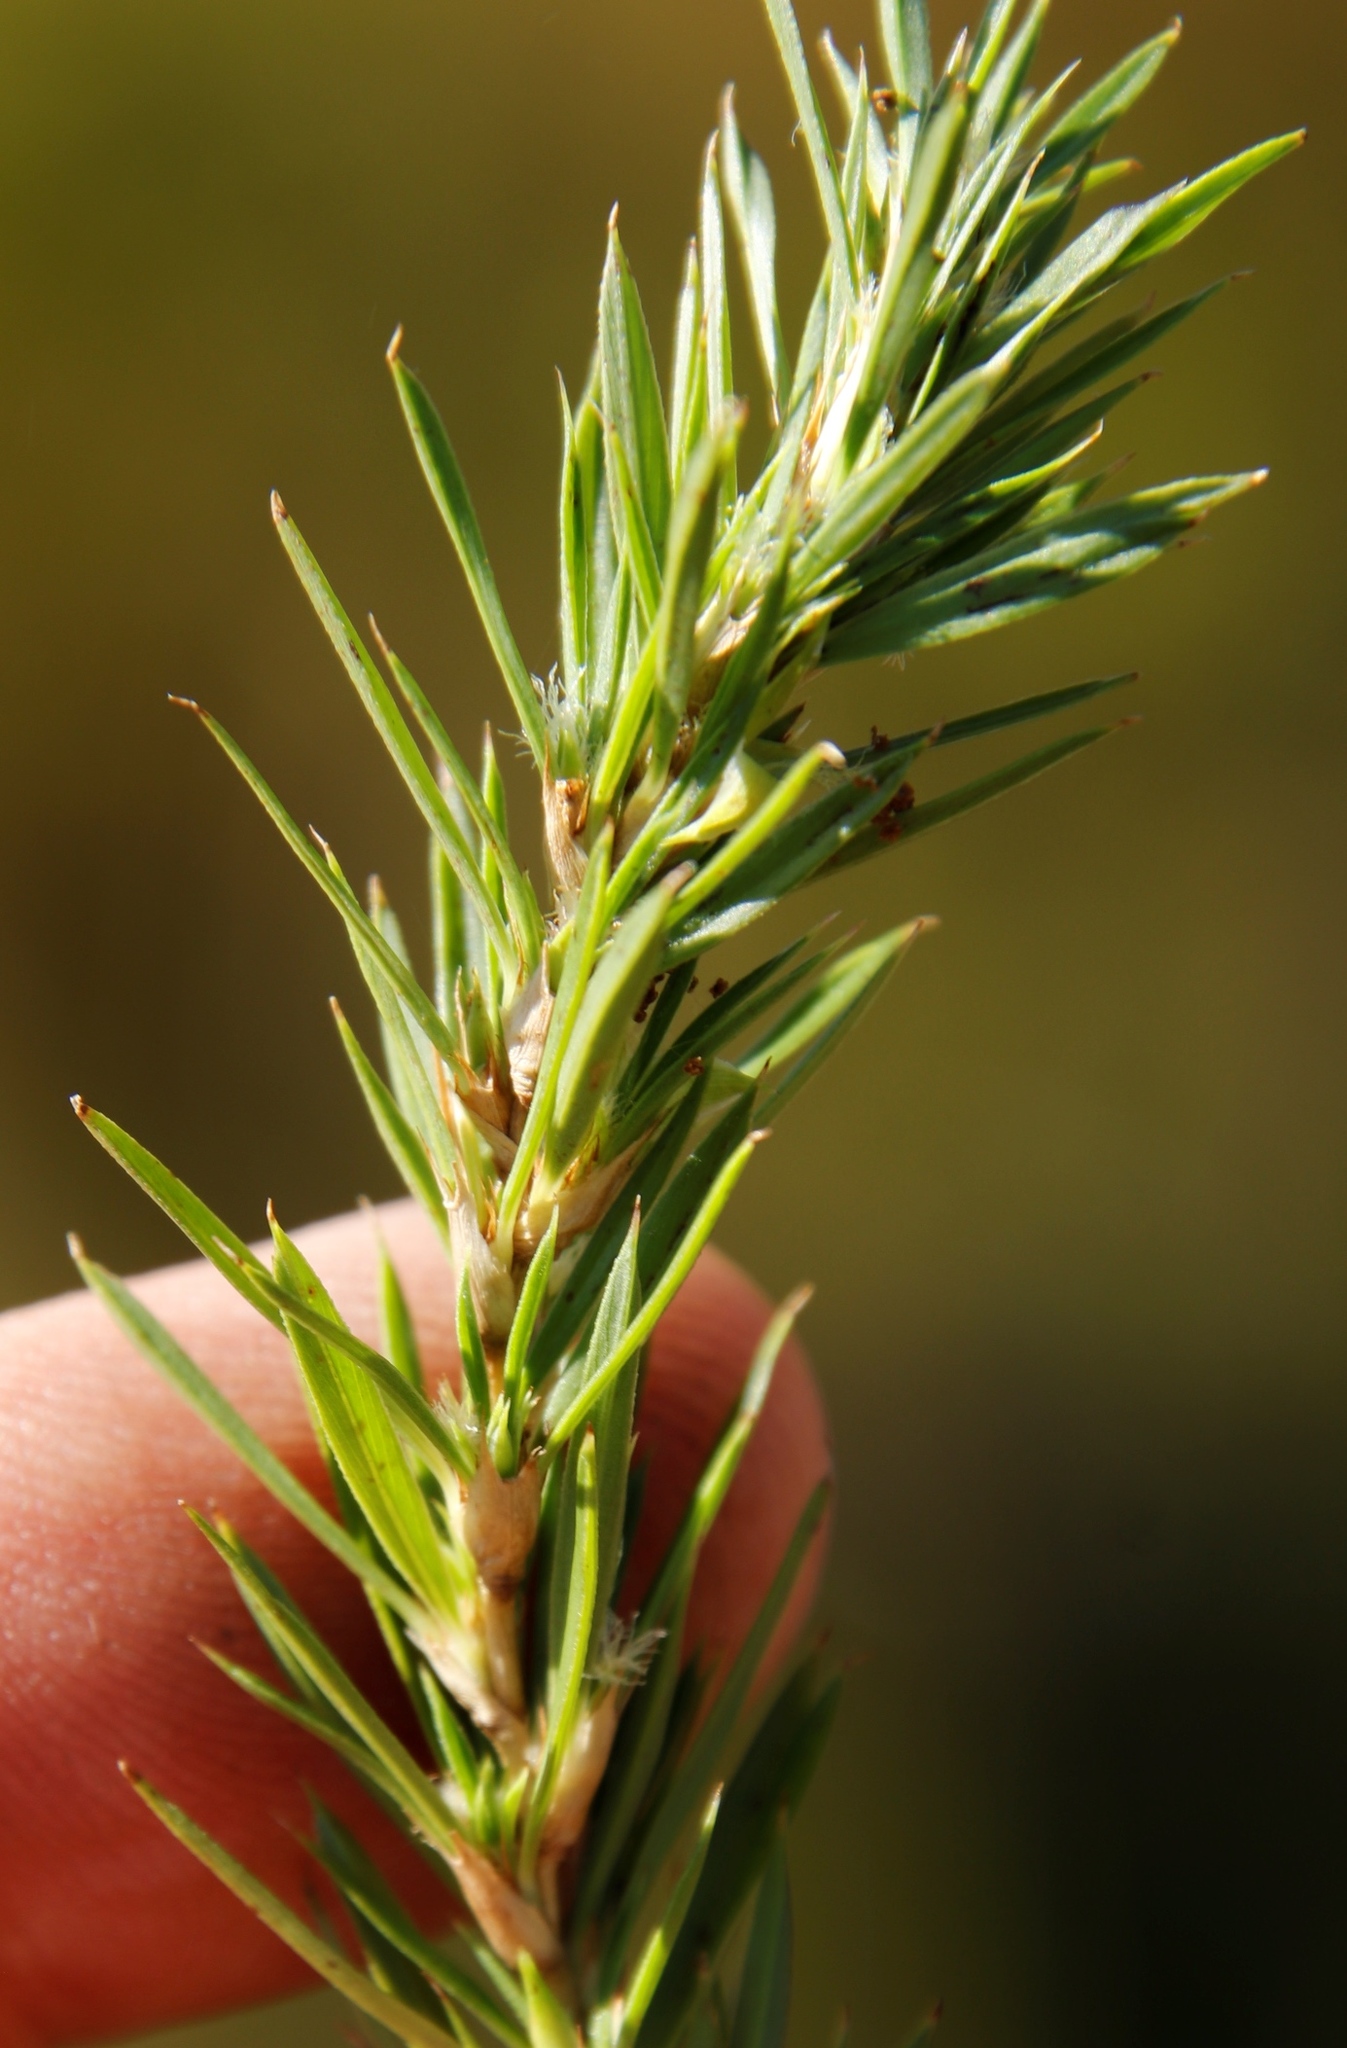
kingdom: Plantae
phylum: Tracheophyta
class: Magnoliopsida
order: Rosales
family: Rosaceae
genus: Cliffortia
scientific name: Cliffortia strobilifera
